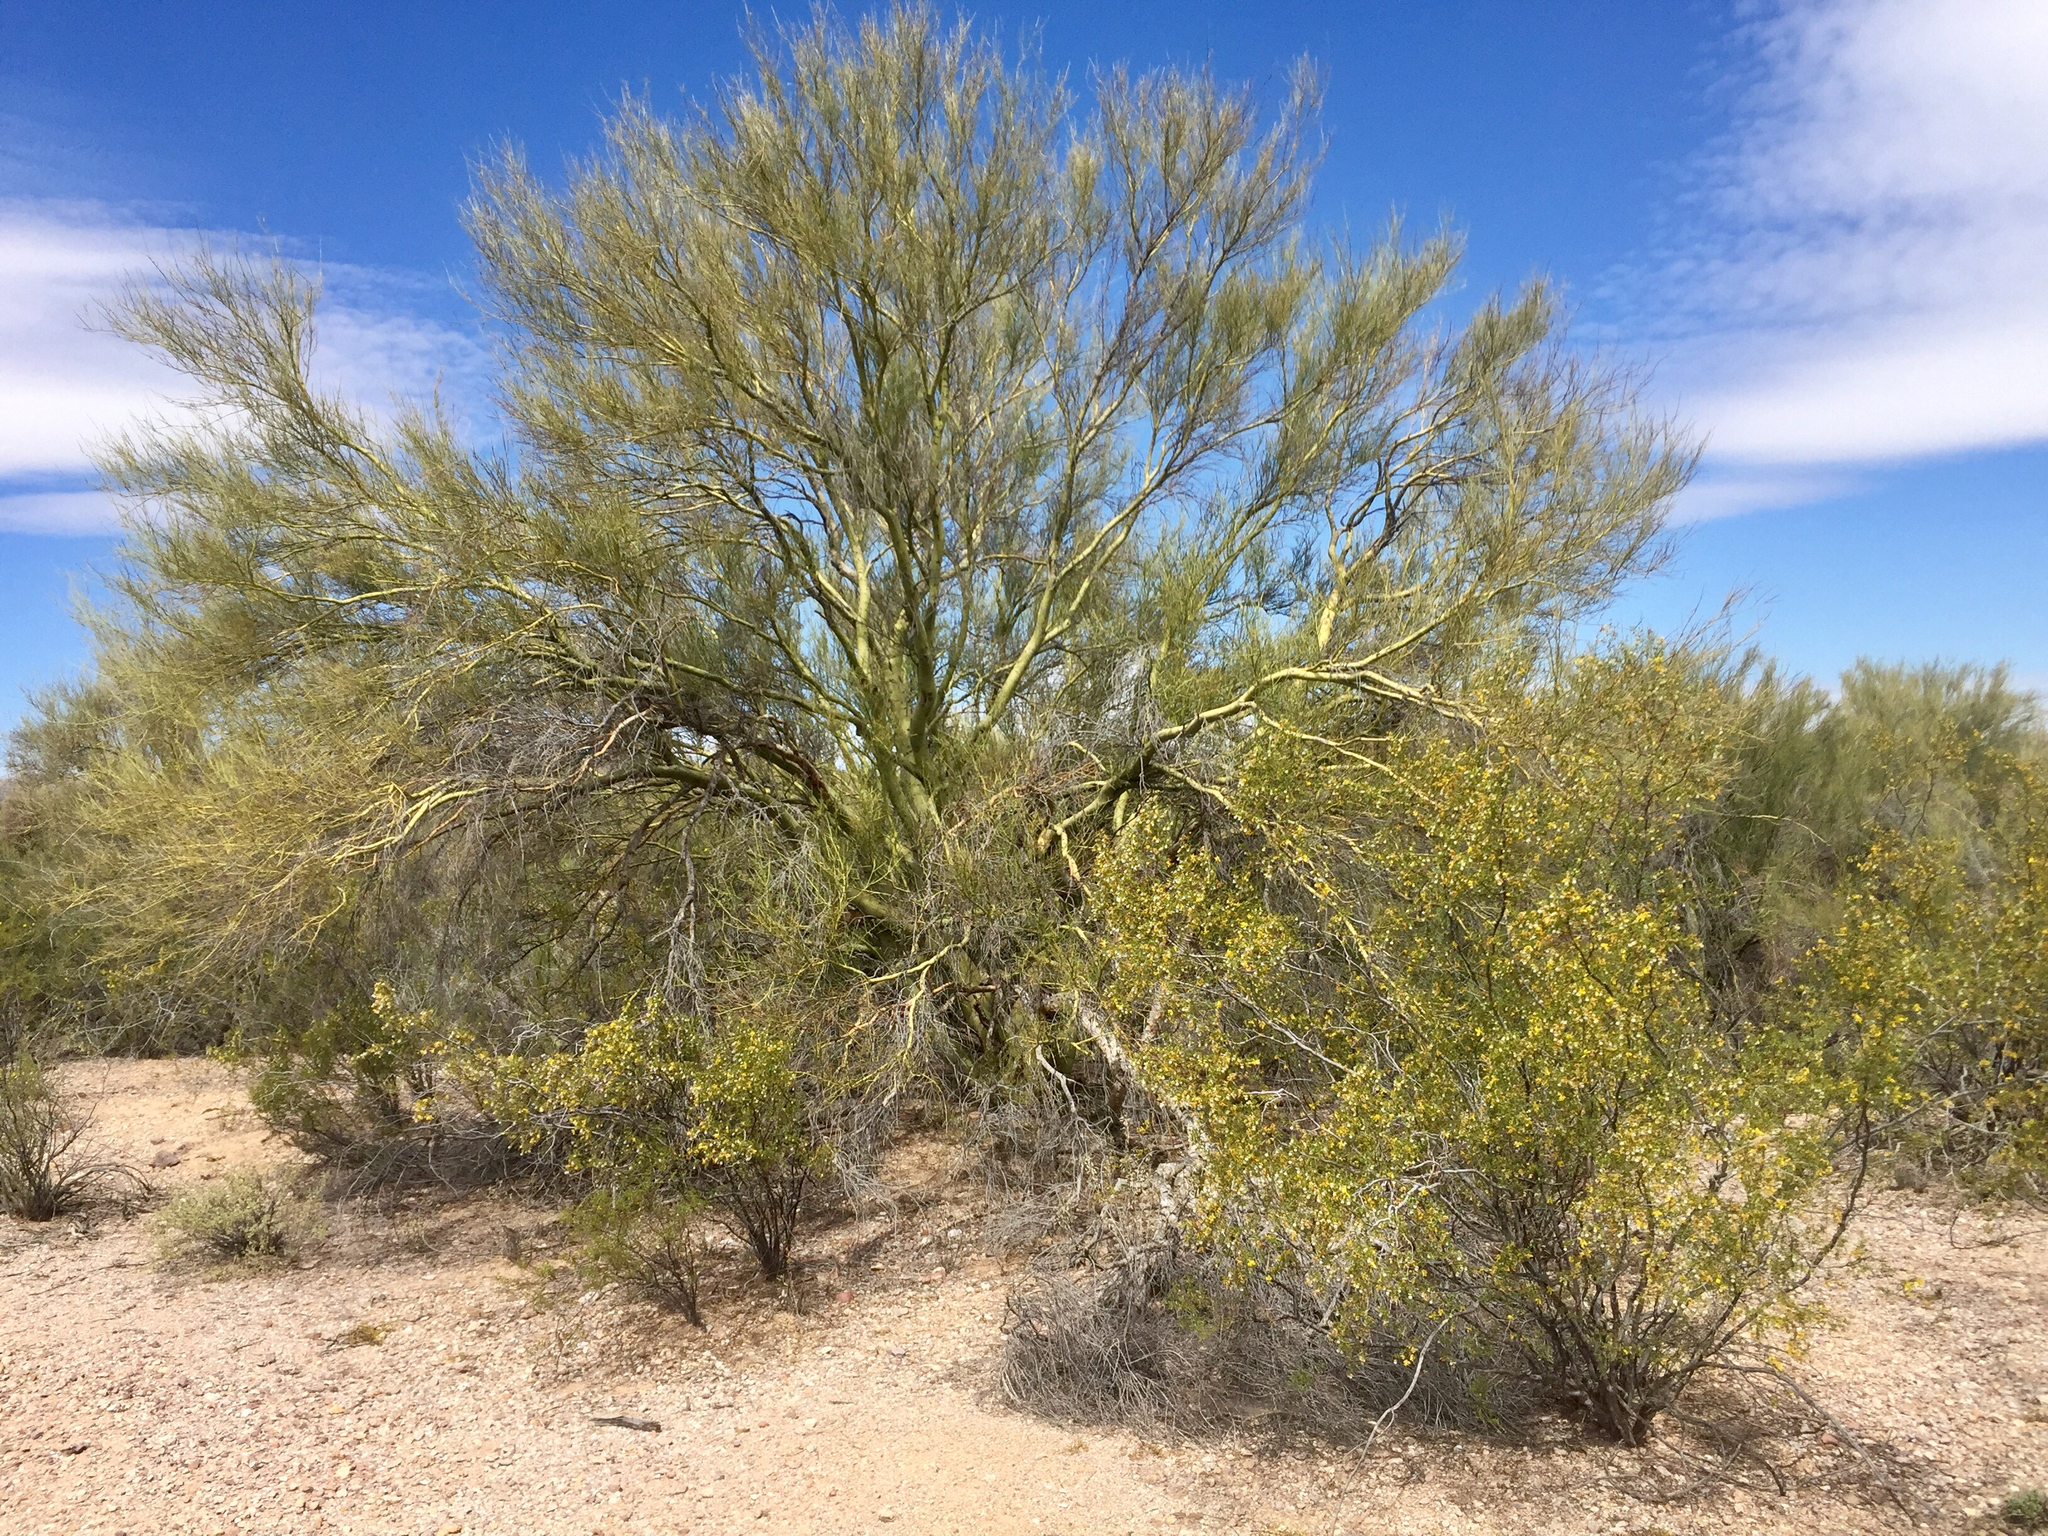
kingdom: Plantae
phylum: Tracheophyta
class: Magnoliopsida
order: Fabales
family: Fabaceae
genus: Parkinsonia
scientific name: Parkinsonia microphylla
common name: Yellow paloverde
